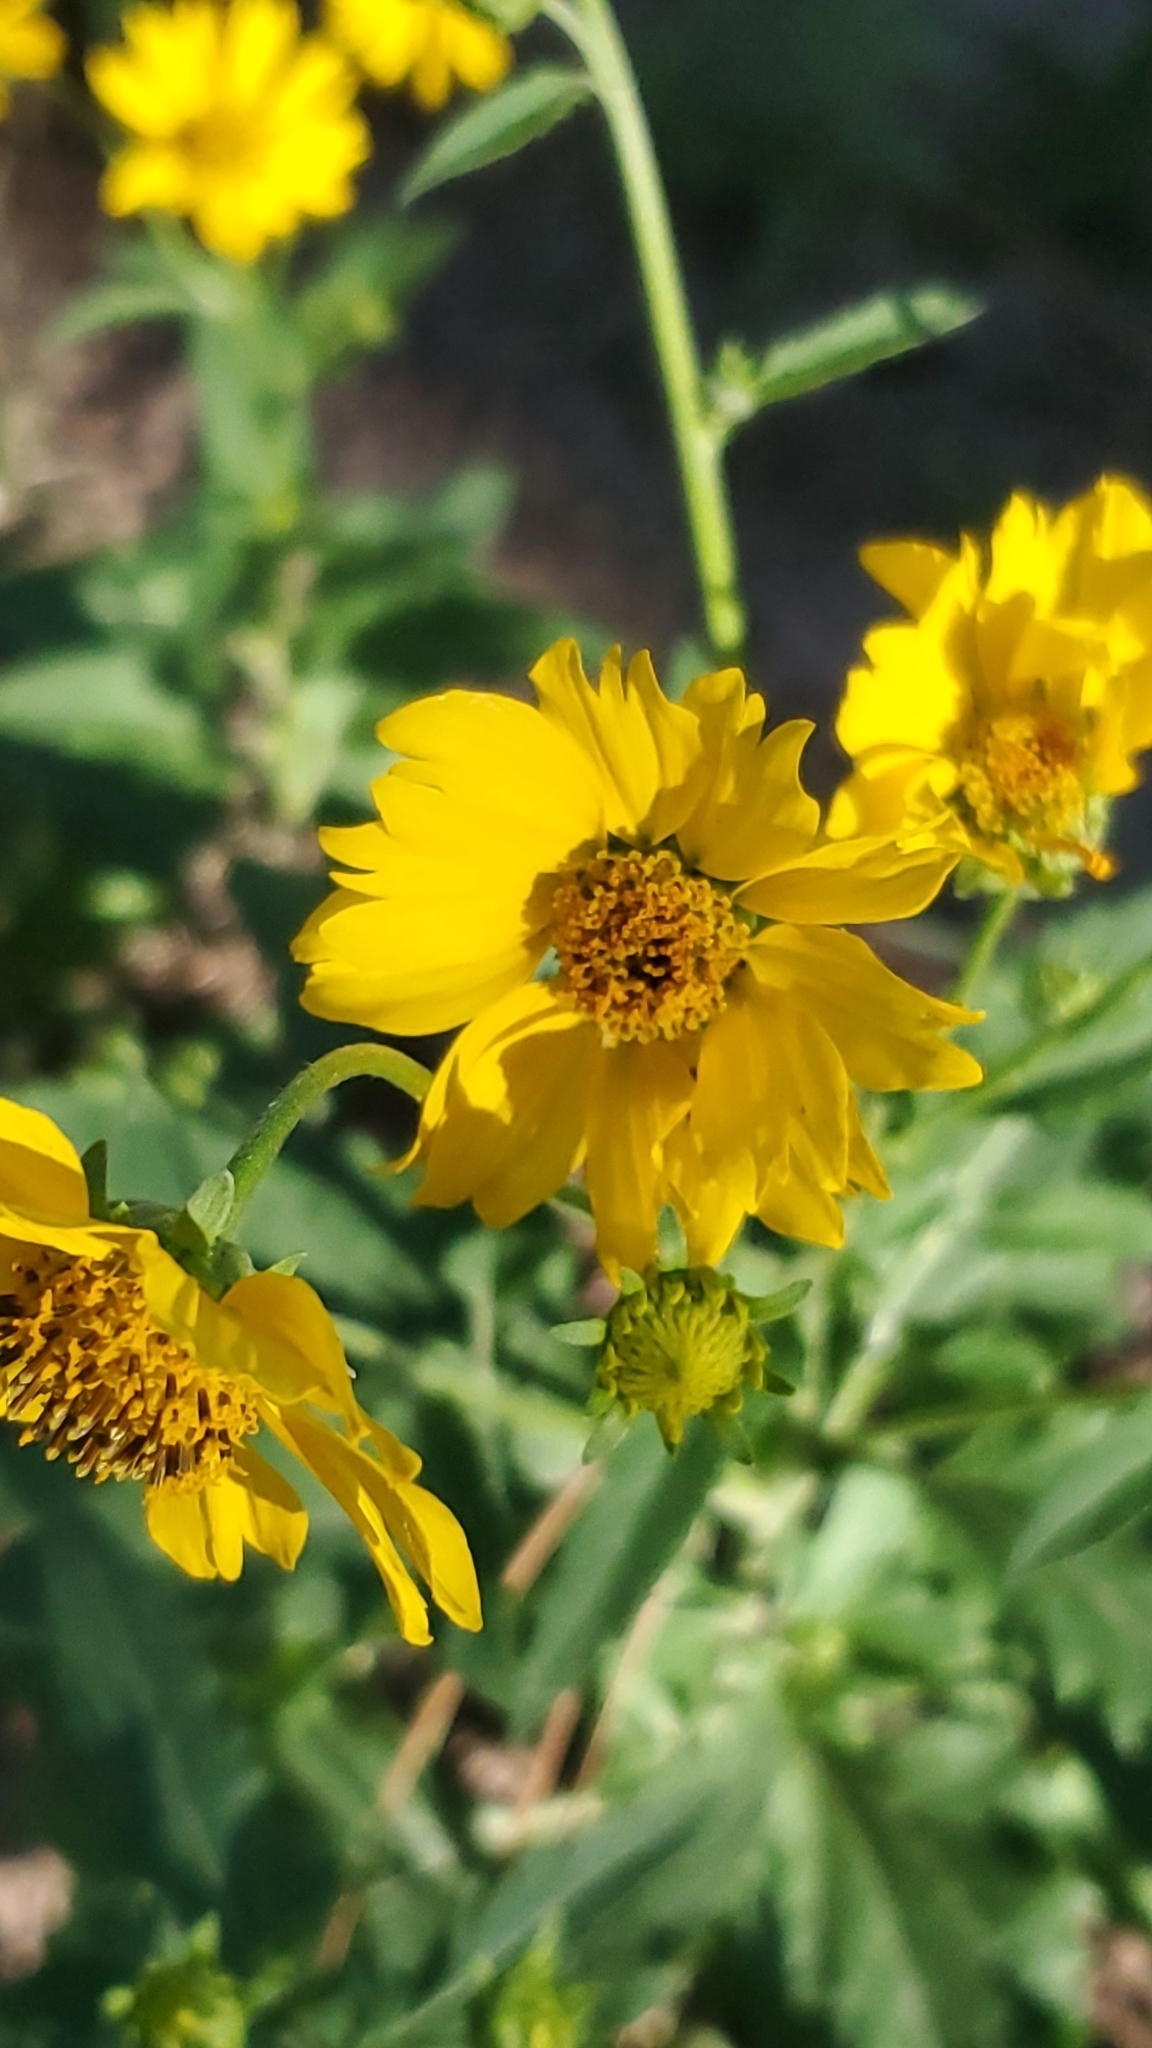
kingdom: Plantae
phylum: Tracheophyta
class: Magnoliopsida
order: Asterales
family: Asteraceae
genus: Verbesina
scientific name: Verbesina encelioides
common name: Golden crownbeard
